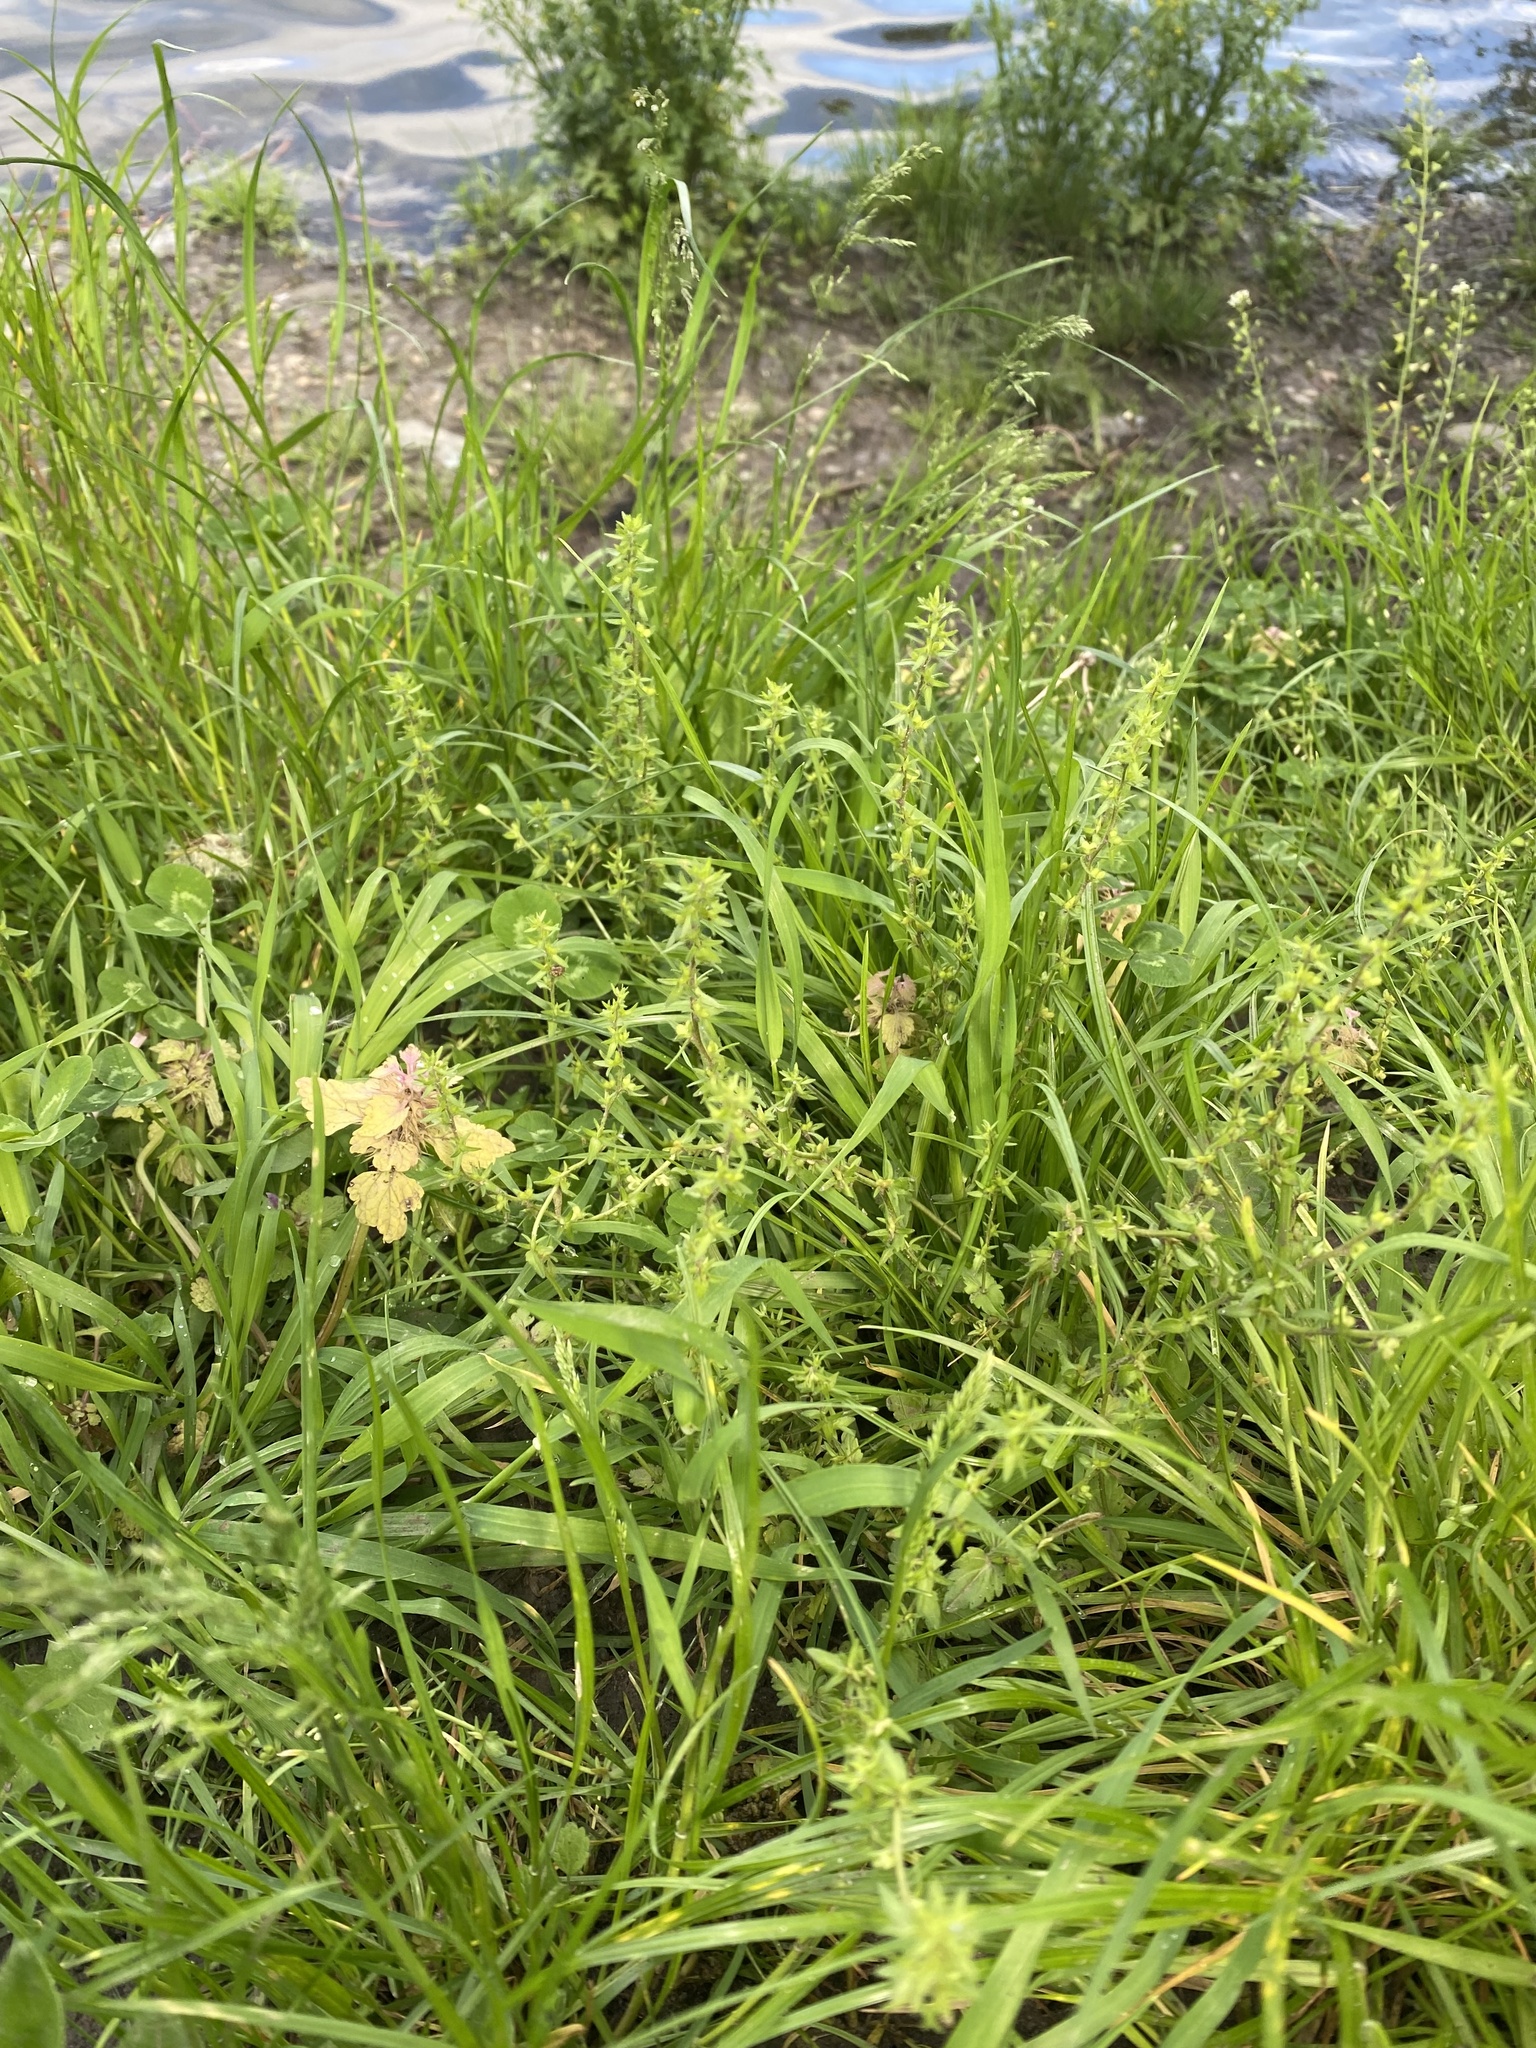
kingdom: Plantae
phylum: Tracheophyta
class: Magnoliopsida
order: Lamiales
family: Plantaginaceae
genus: Veronica
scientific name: Veronica arvensis
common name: Corn speedwell
